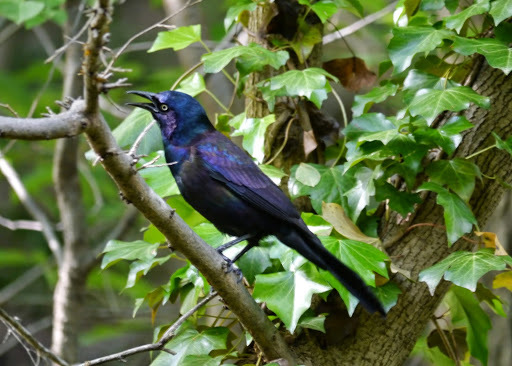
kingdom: Animalia
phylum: Chordata
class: Aves
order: Passeriformes
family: Icteridae
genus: Quiscalus
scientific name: Quiscalus quiscula
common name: Common grackle
